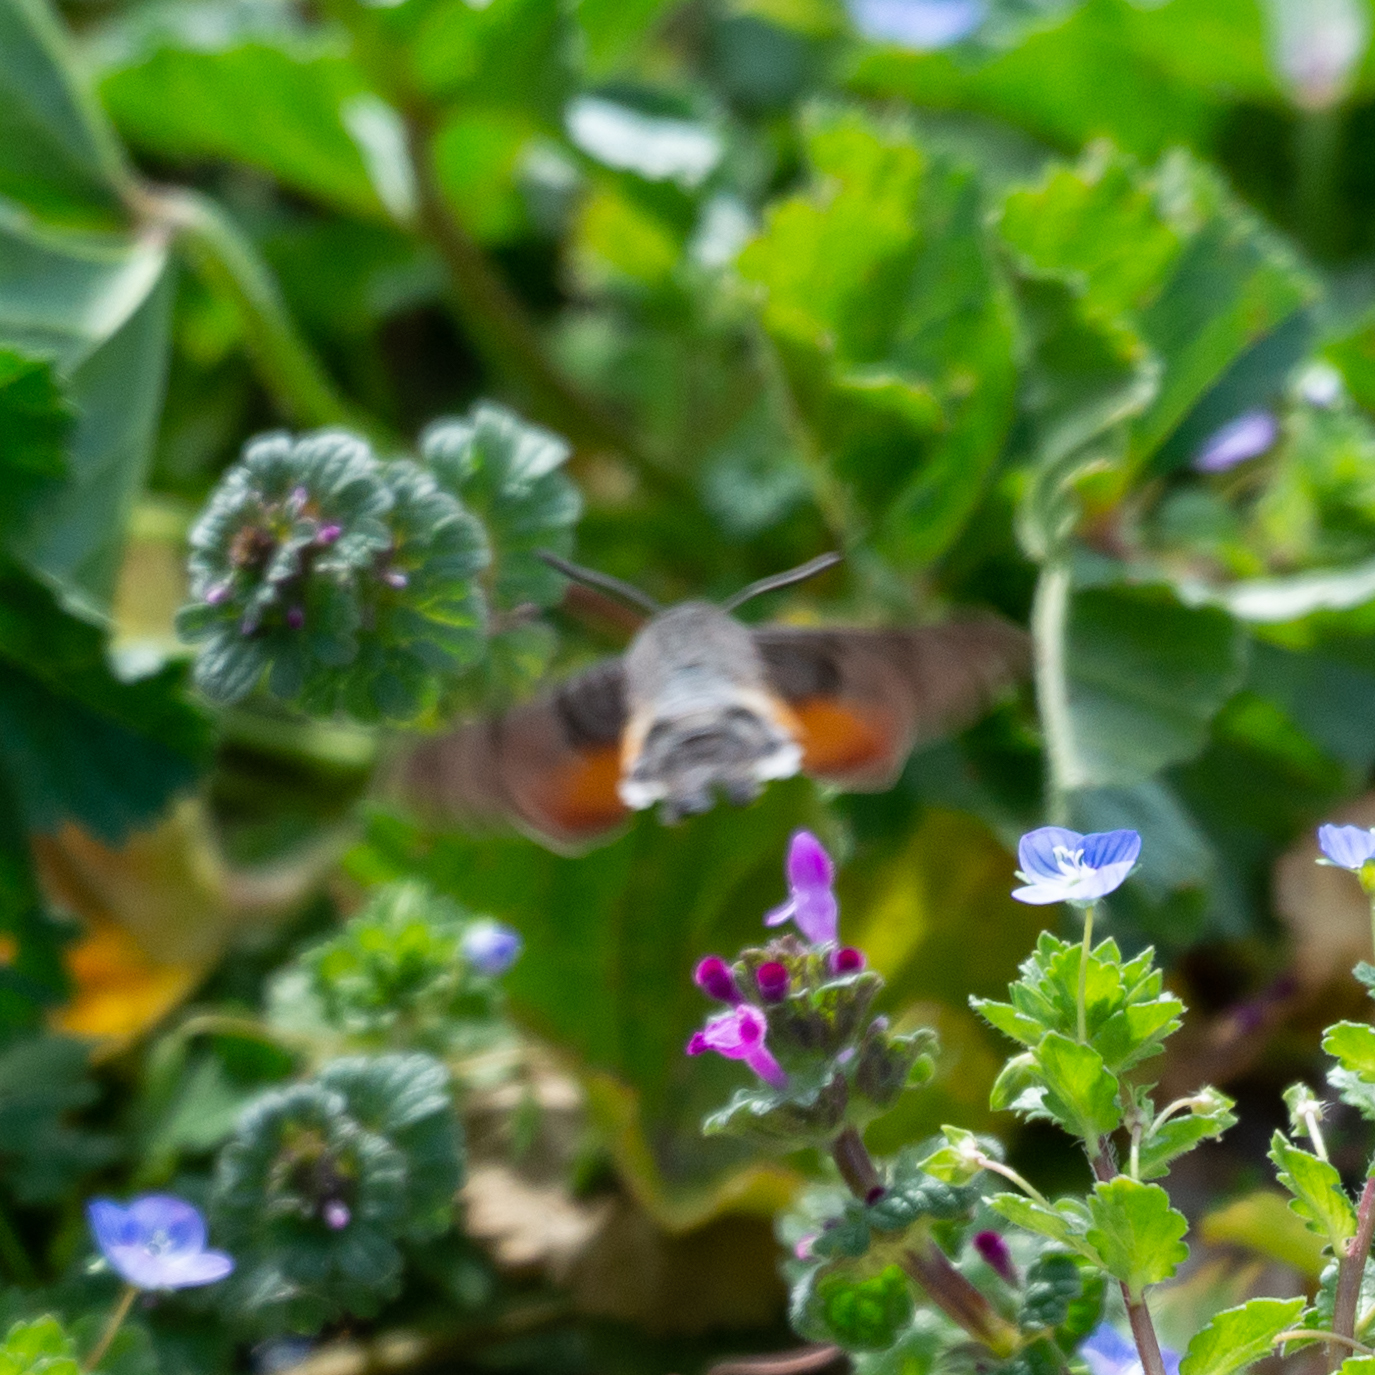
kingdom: Animalia
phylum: Arthropoda
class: Insecta
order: Lepidoptera
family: Sphingidae
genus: Macroglossum
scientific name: Macroglossum stellatarum
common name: Humming-bird hawk-moth
